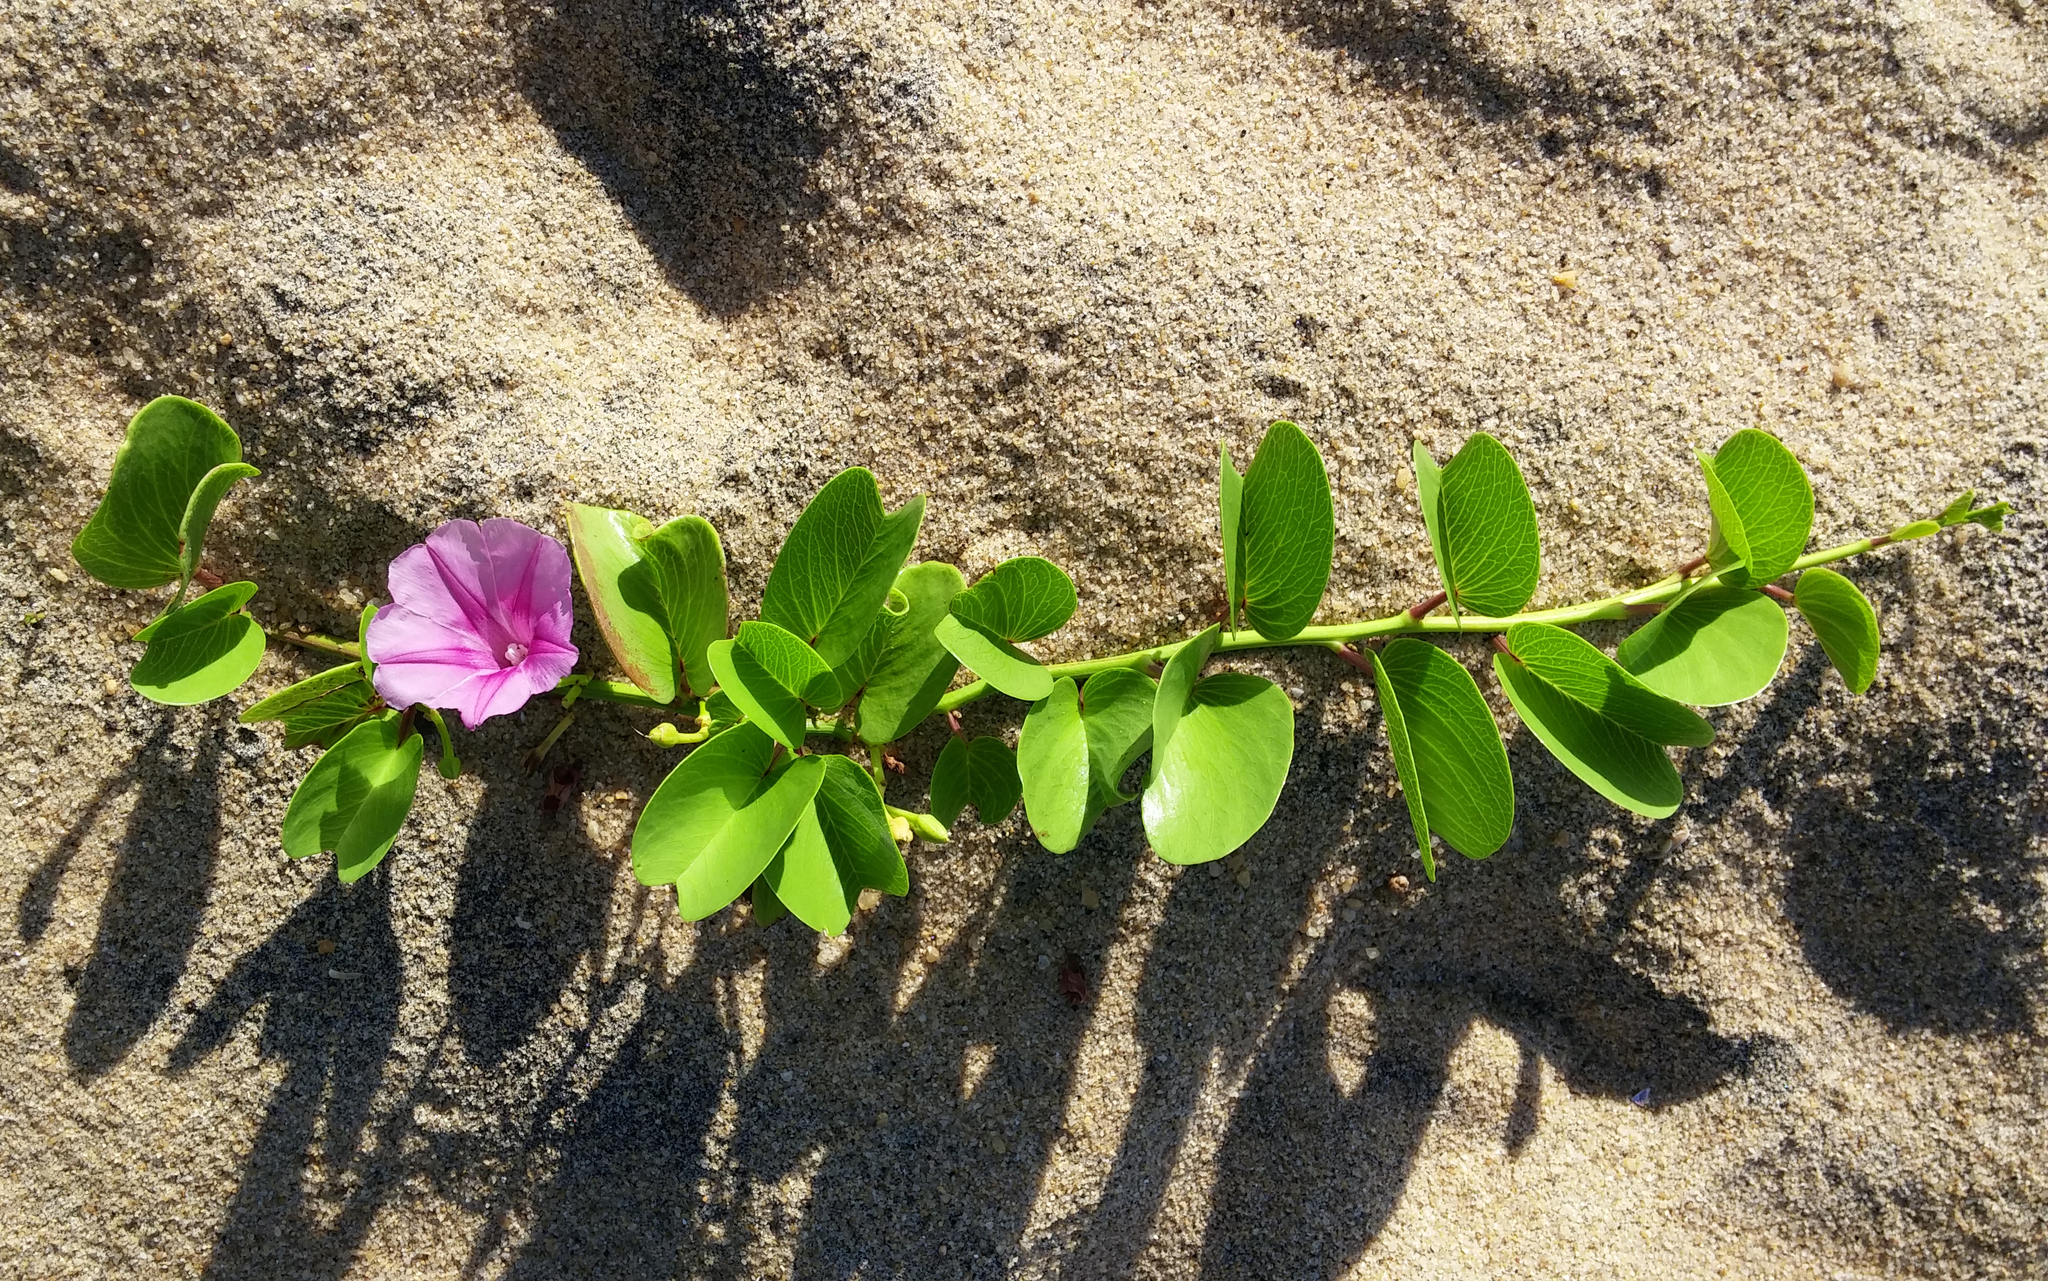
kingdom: Plantae
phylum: Tracheophyta
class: Magnoliopsida
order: Solanales
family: Convolvulaceae
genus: Ipomoea
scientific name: Ipomoea pes-caprae
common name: Beach morning glory
